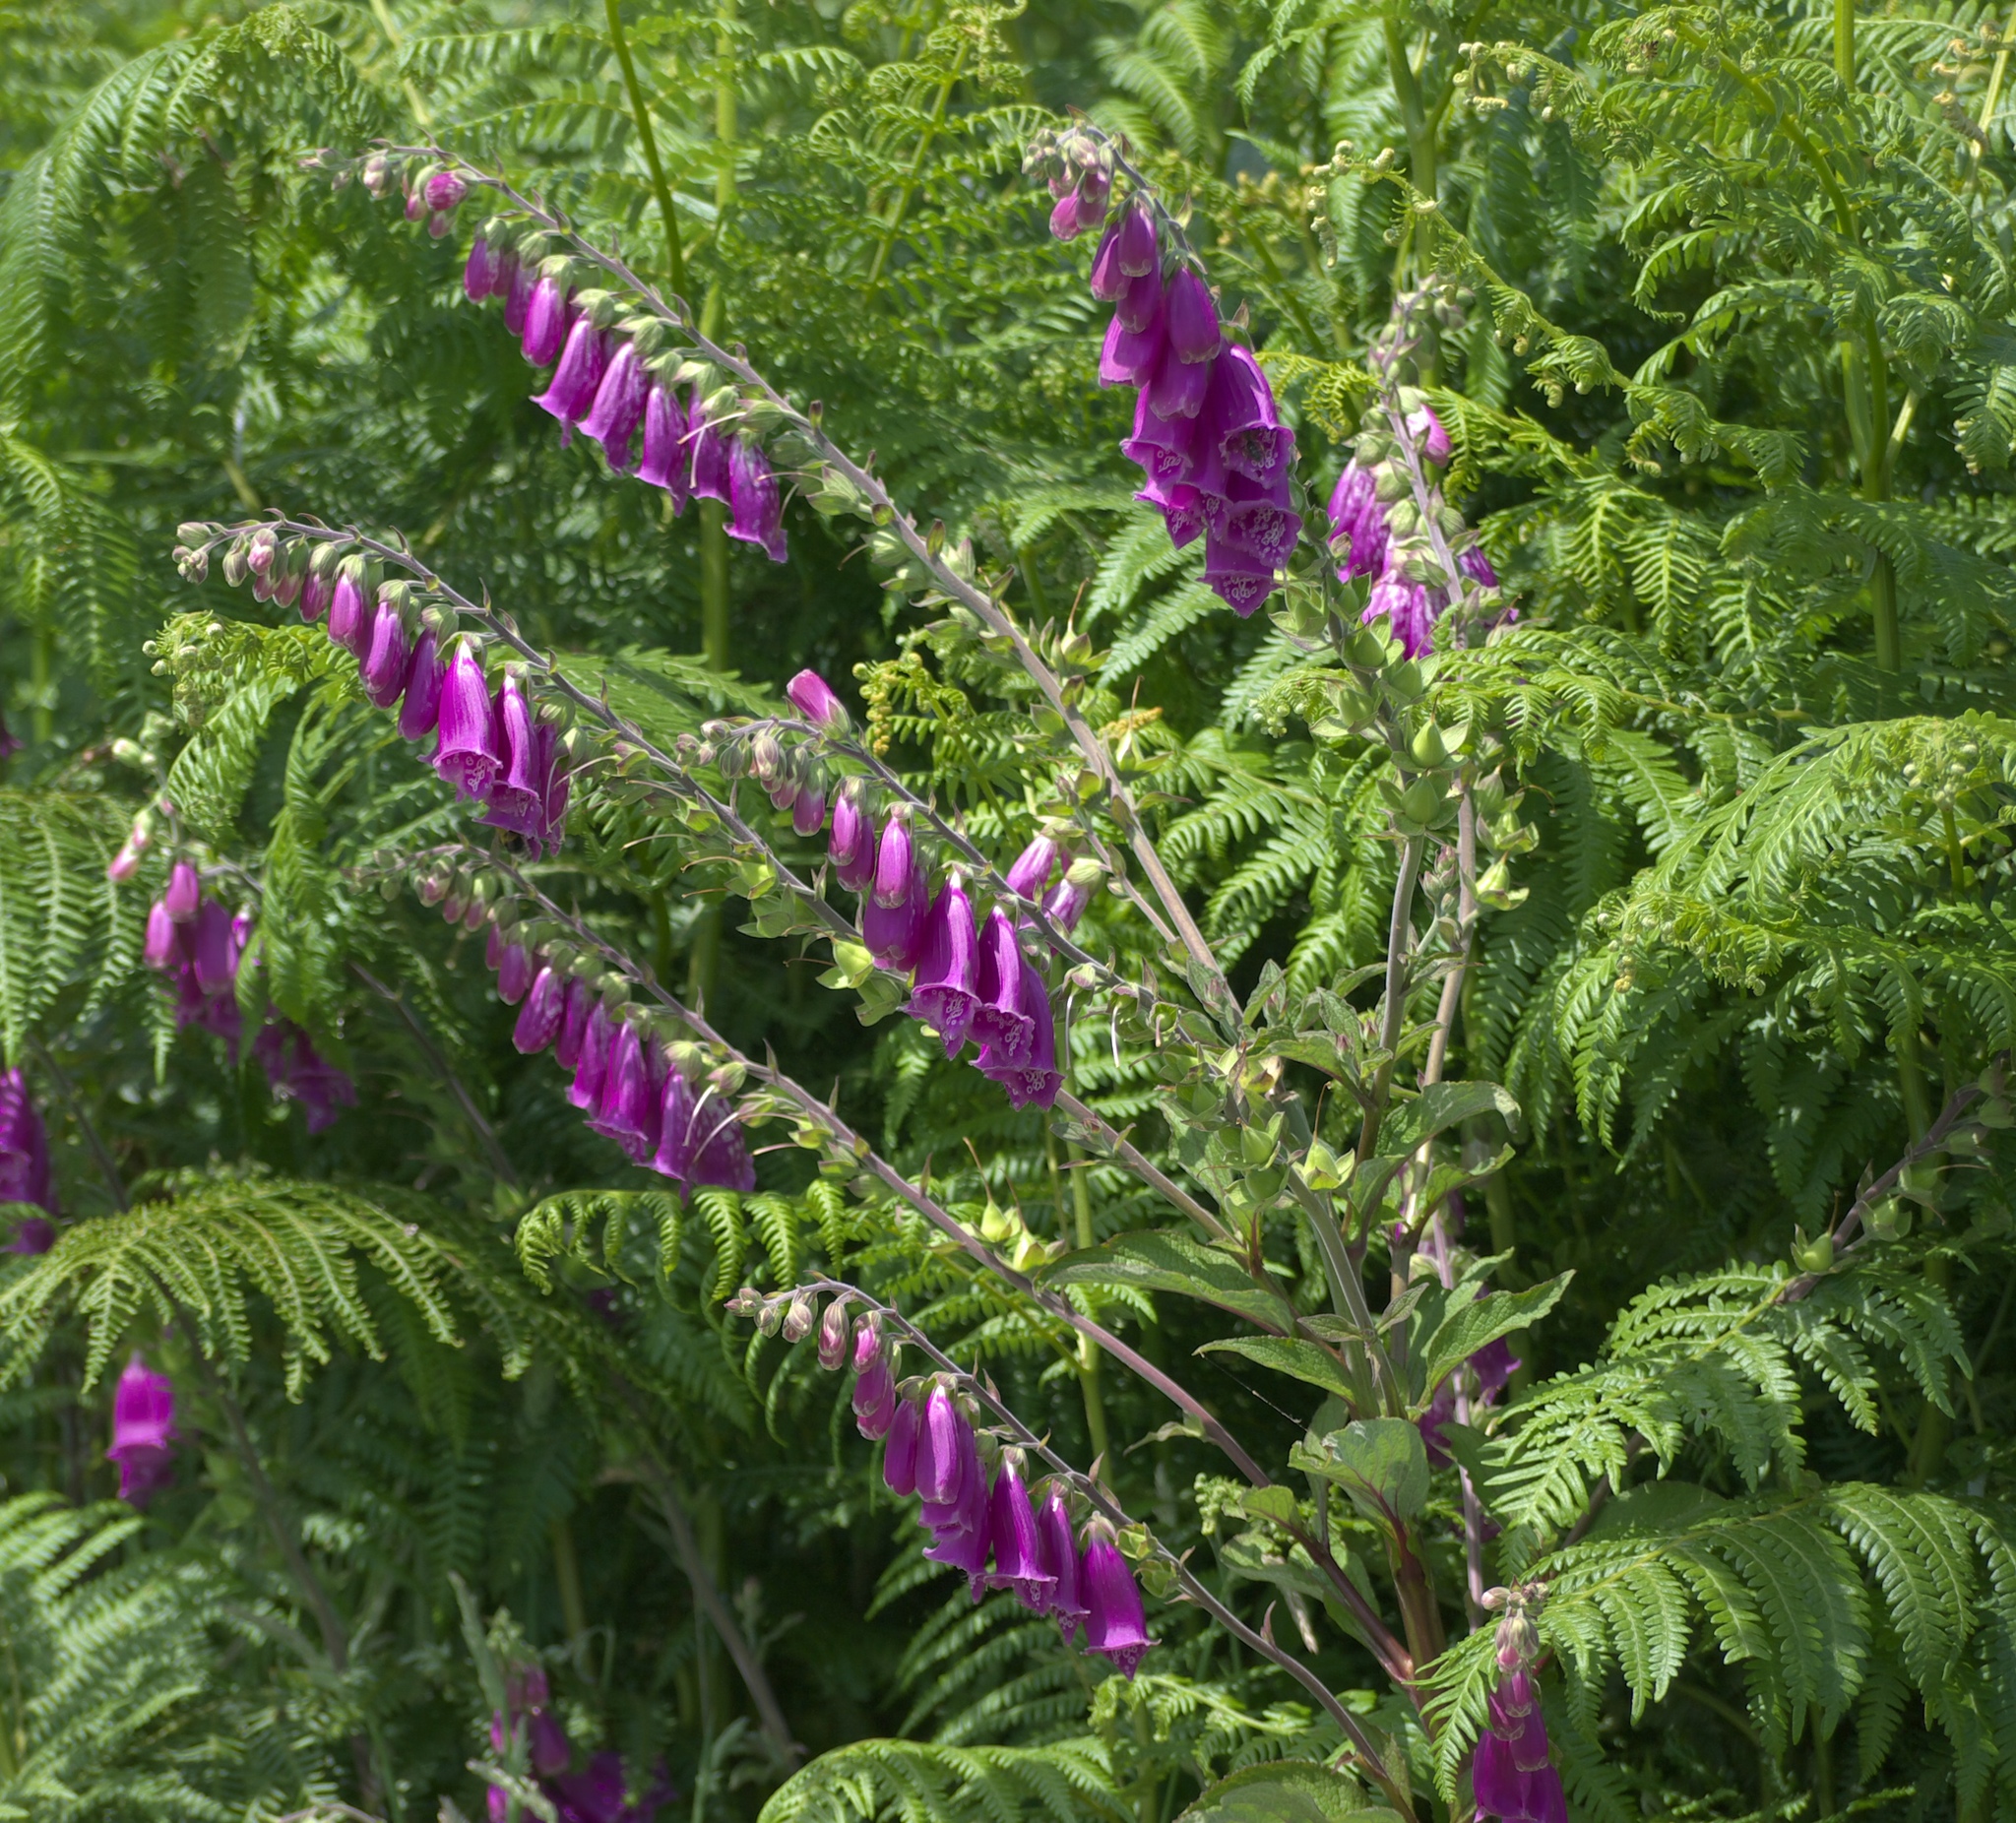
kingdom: Plantae
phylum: Tracheophyta
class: Magnoliopsida
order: Lamiales
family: Plantaginaceae
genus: Digitalis
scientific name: Digitalis purpurea
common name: Foxglove
